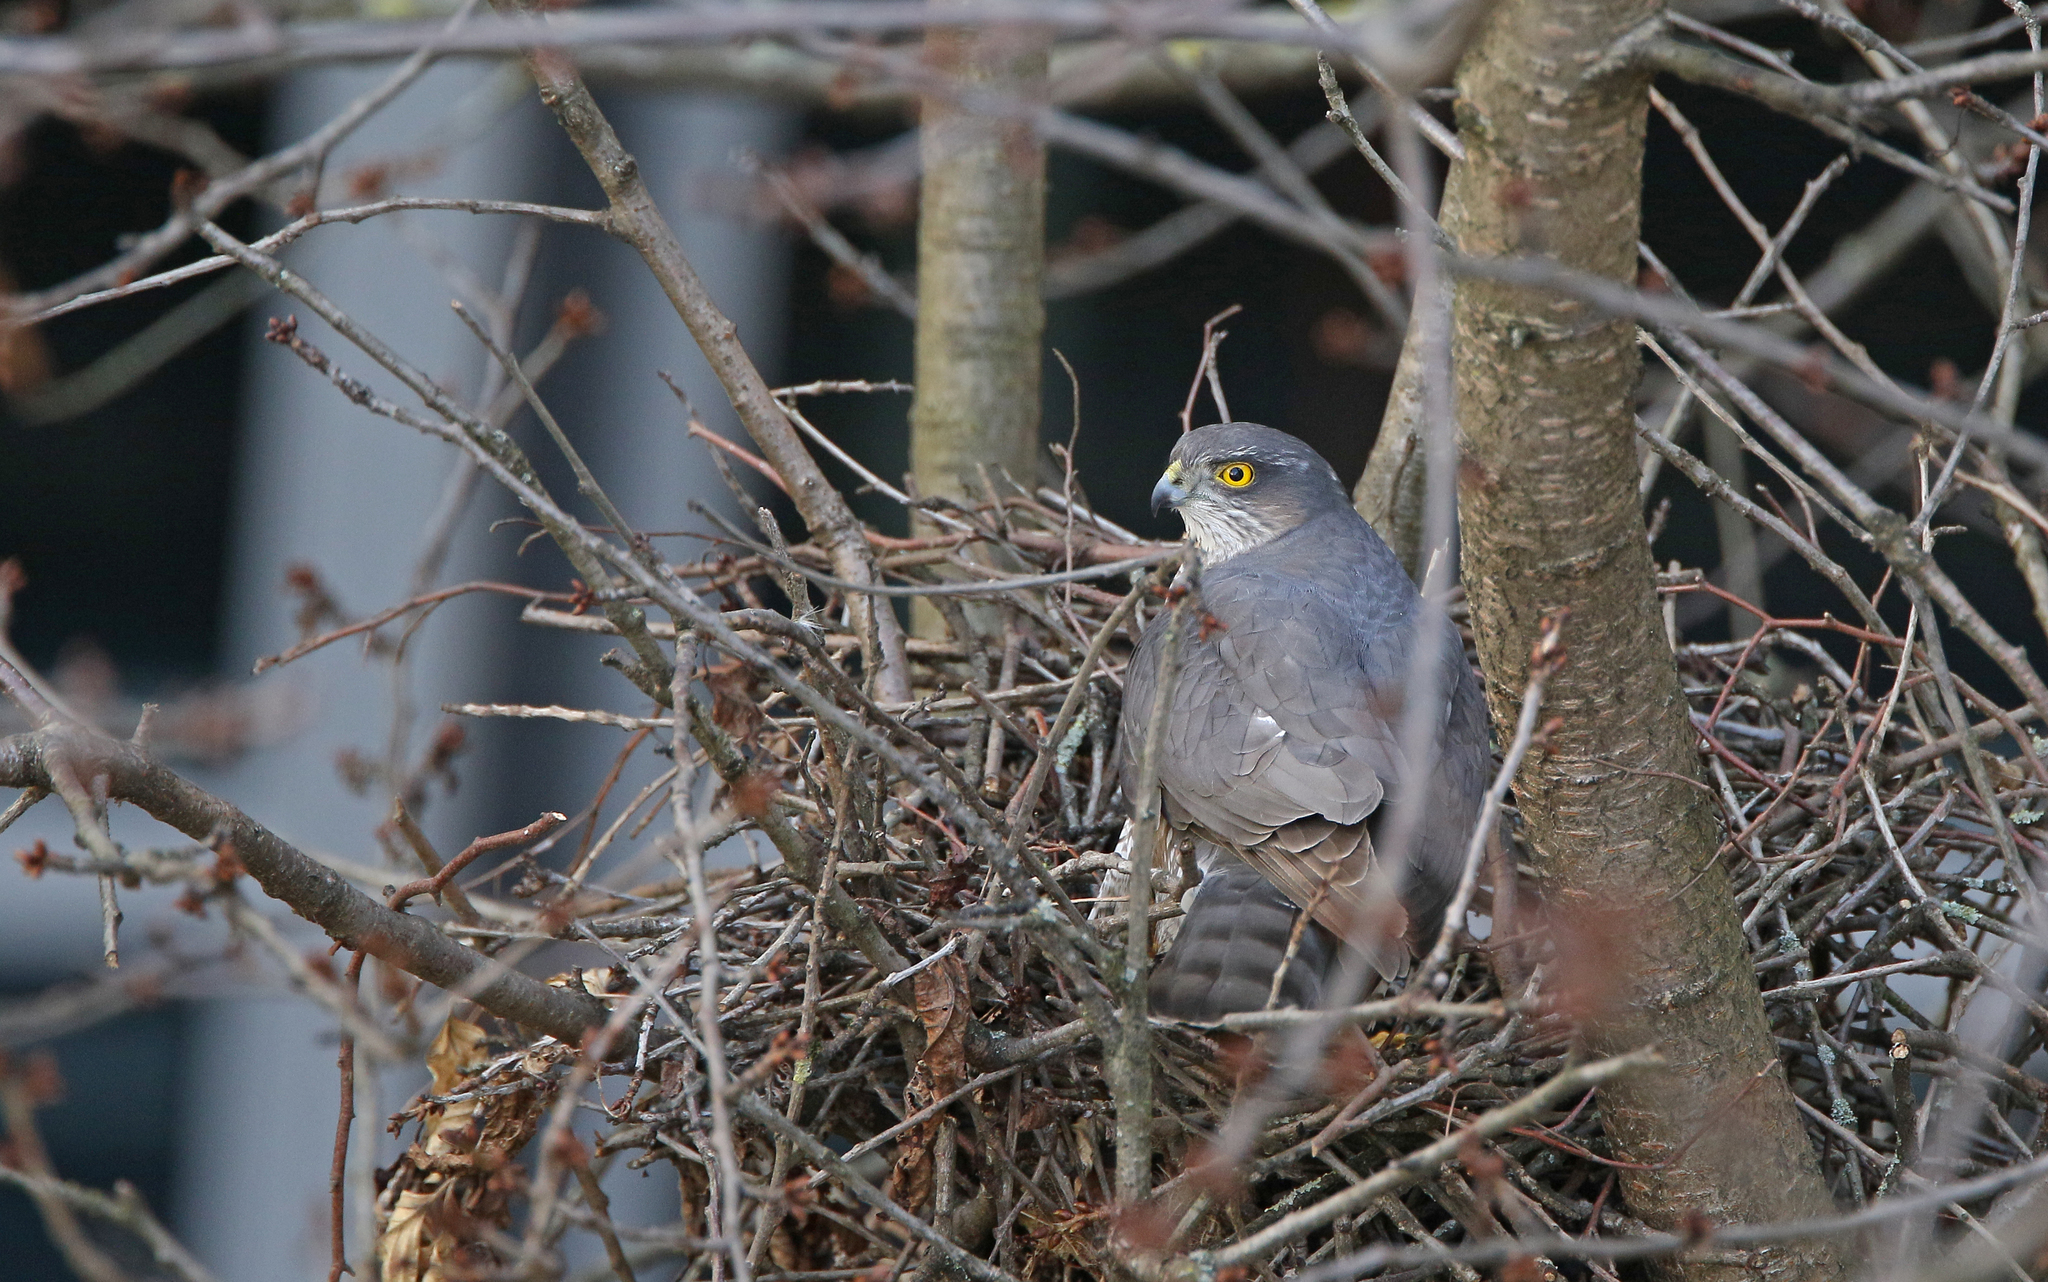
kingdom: Animalia
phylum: Chordata
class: Aves
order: Accipitriformes
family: Accipitridae
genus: Accipiter
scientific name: Accipiter nisus
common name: Eurasian sparrowhawk
